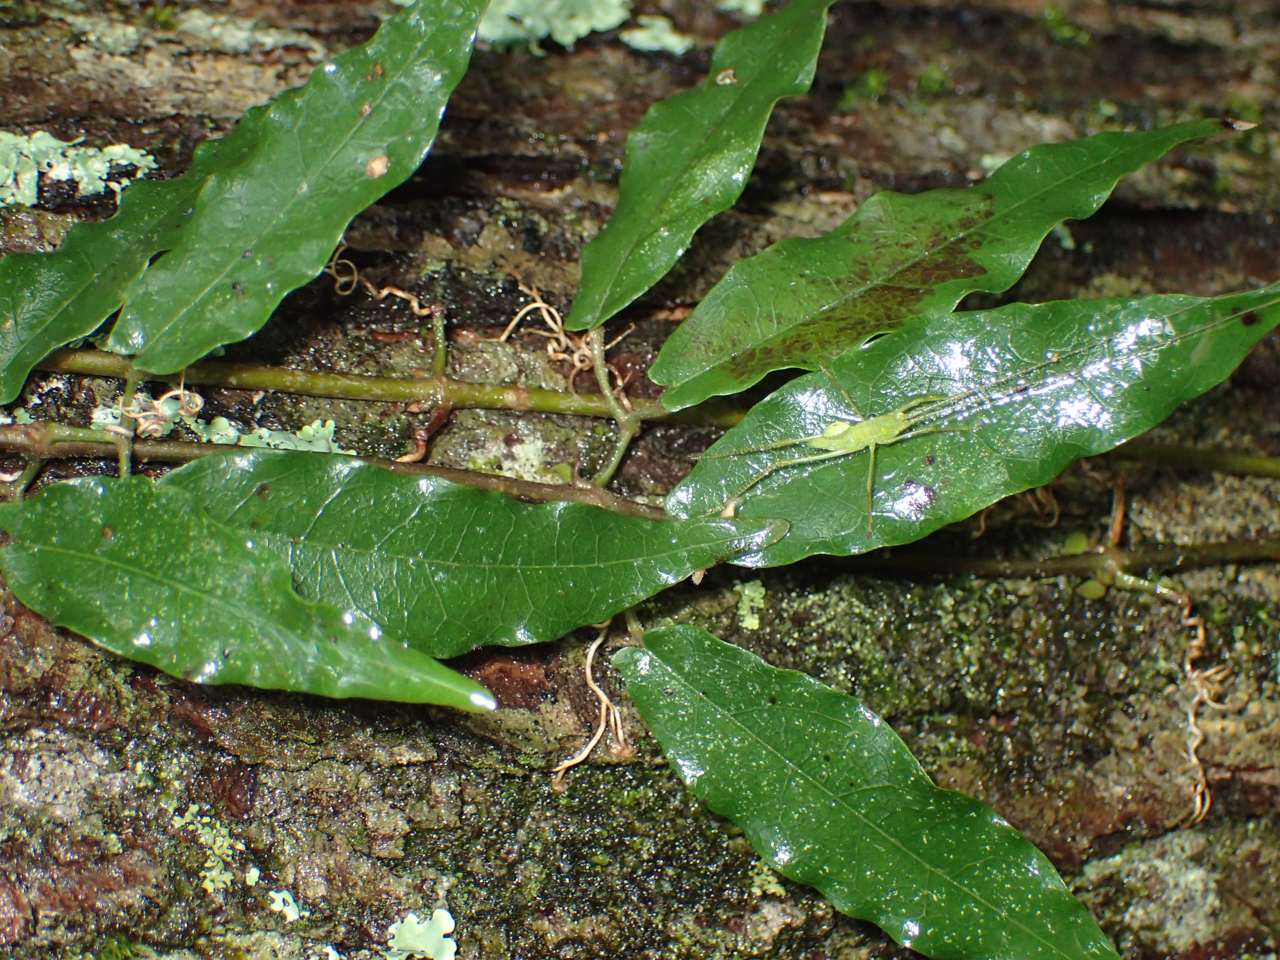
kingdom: Plantae
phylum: Tracheophyta
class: Magnoliopsida
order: Lamiales
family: Bignoniaceae
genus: Bignonia
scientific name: Bignonia capreolata
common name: Crossvine
